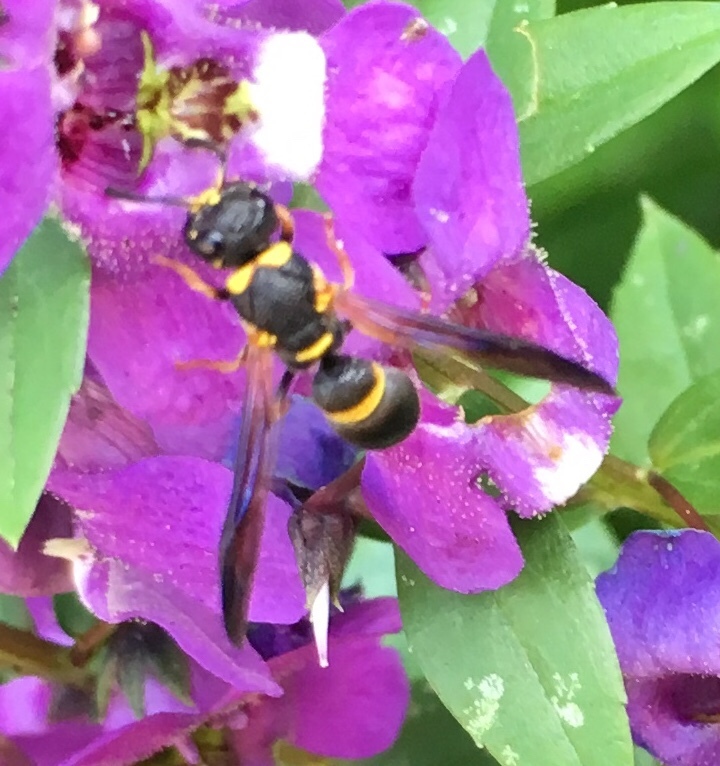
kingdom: Animalia
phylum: Arthropoda
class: Insecta
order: Hymenoptera
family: Eumenidae
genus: Parancistrocerus
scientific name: Parancistrocerus perennis
